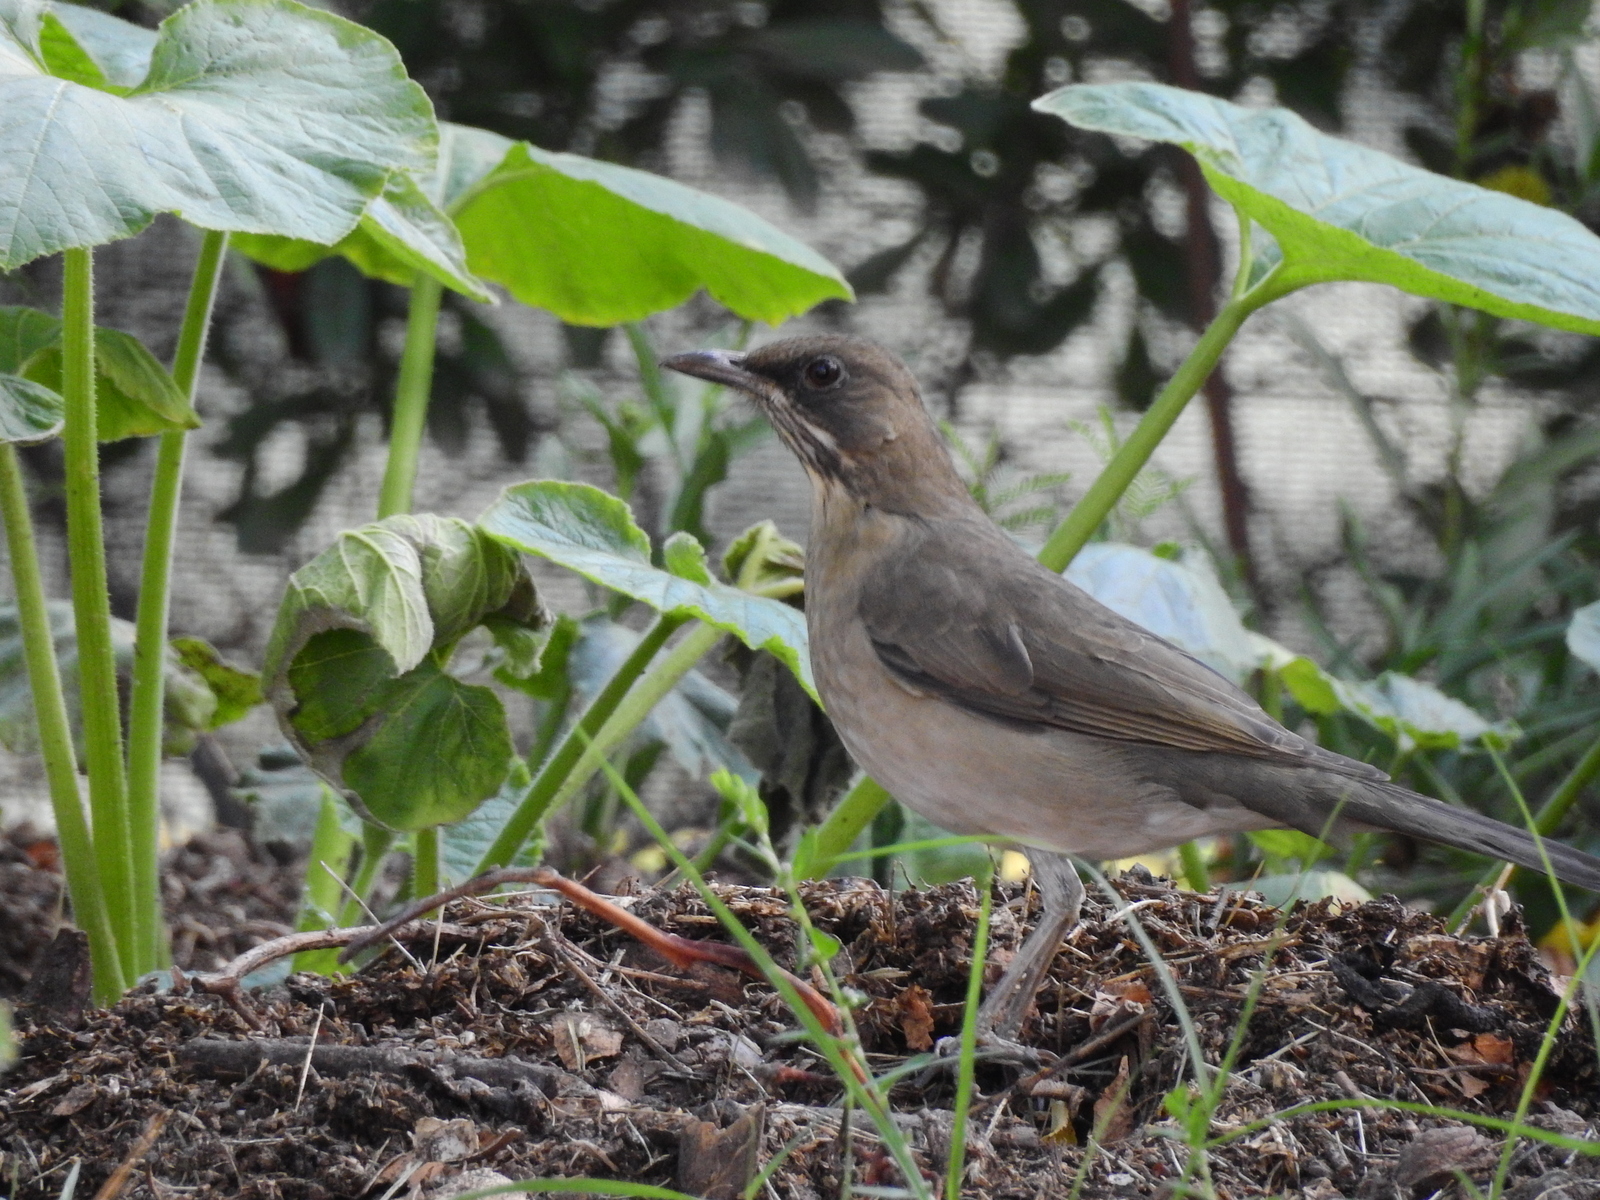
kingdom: Animalia
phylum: Chordata
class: Aves
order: Passeriformes
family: Turdidae
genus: Turdus
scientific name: Turdus amaurochalinus
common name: Creamy-bellied thrush
